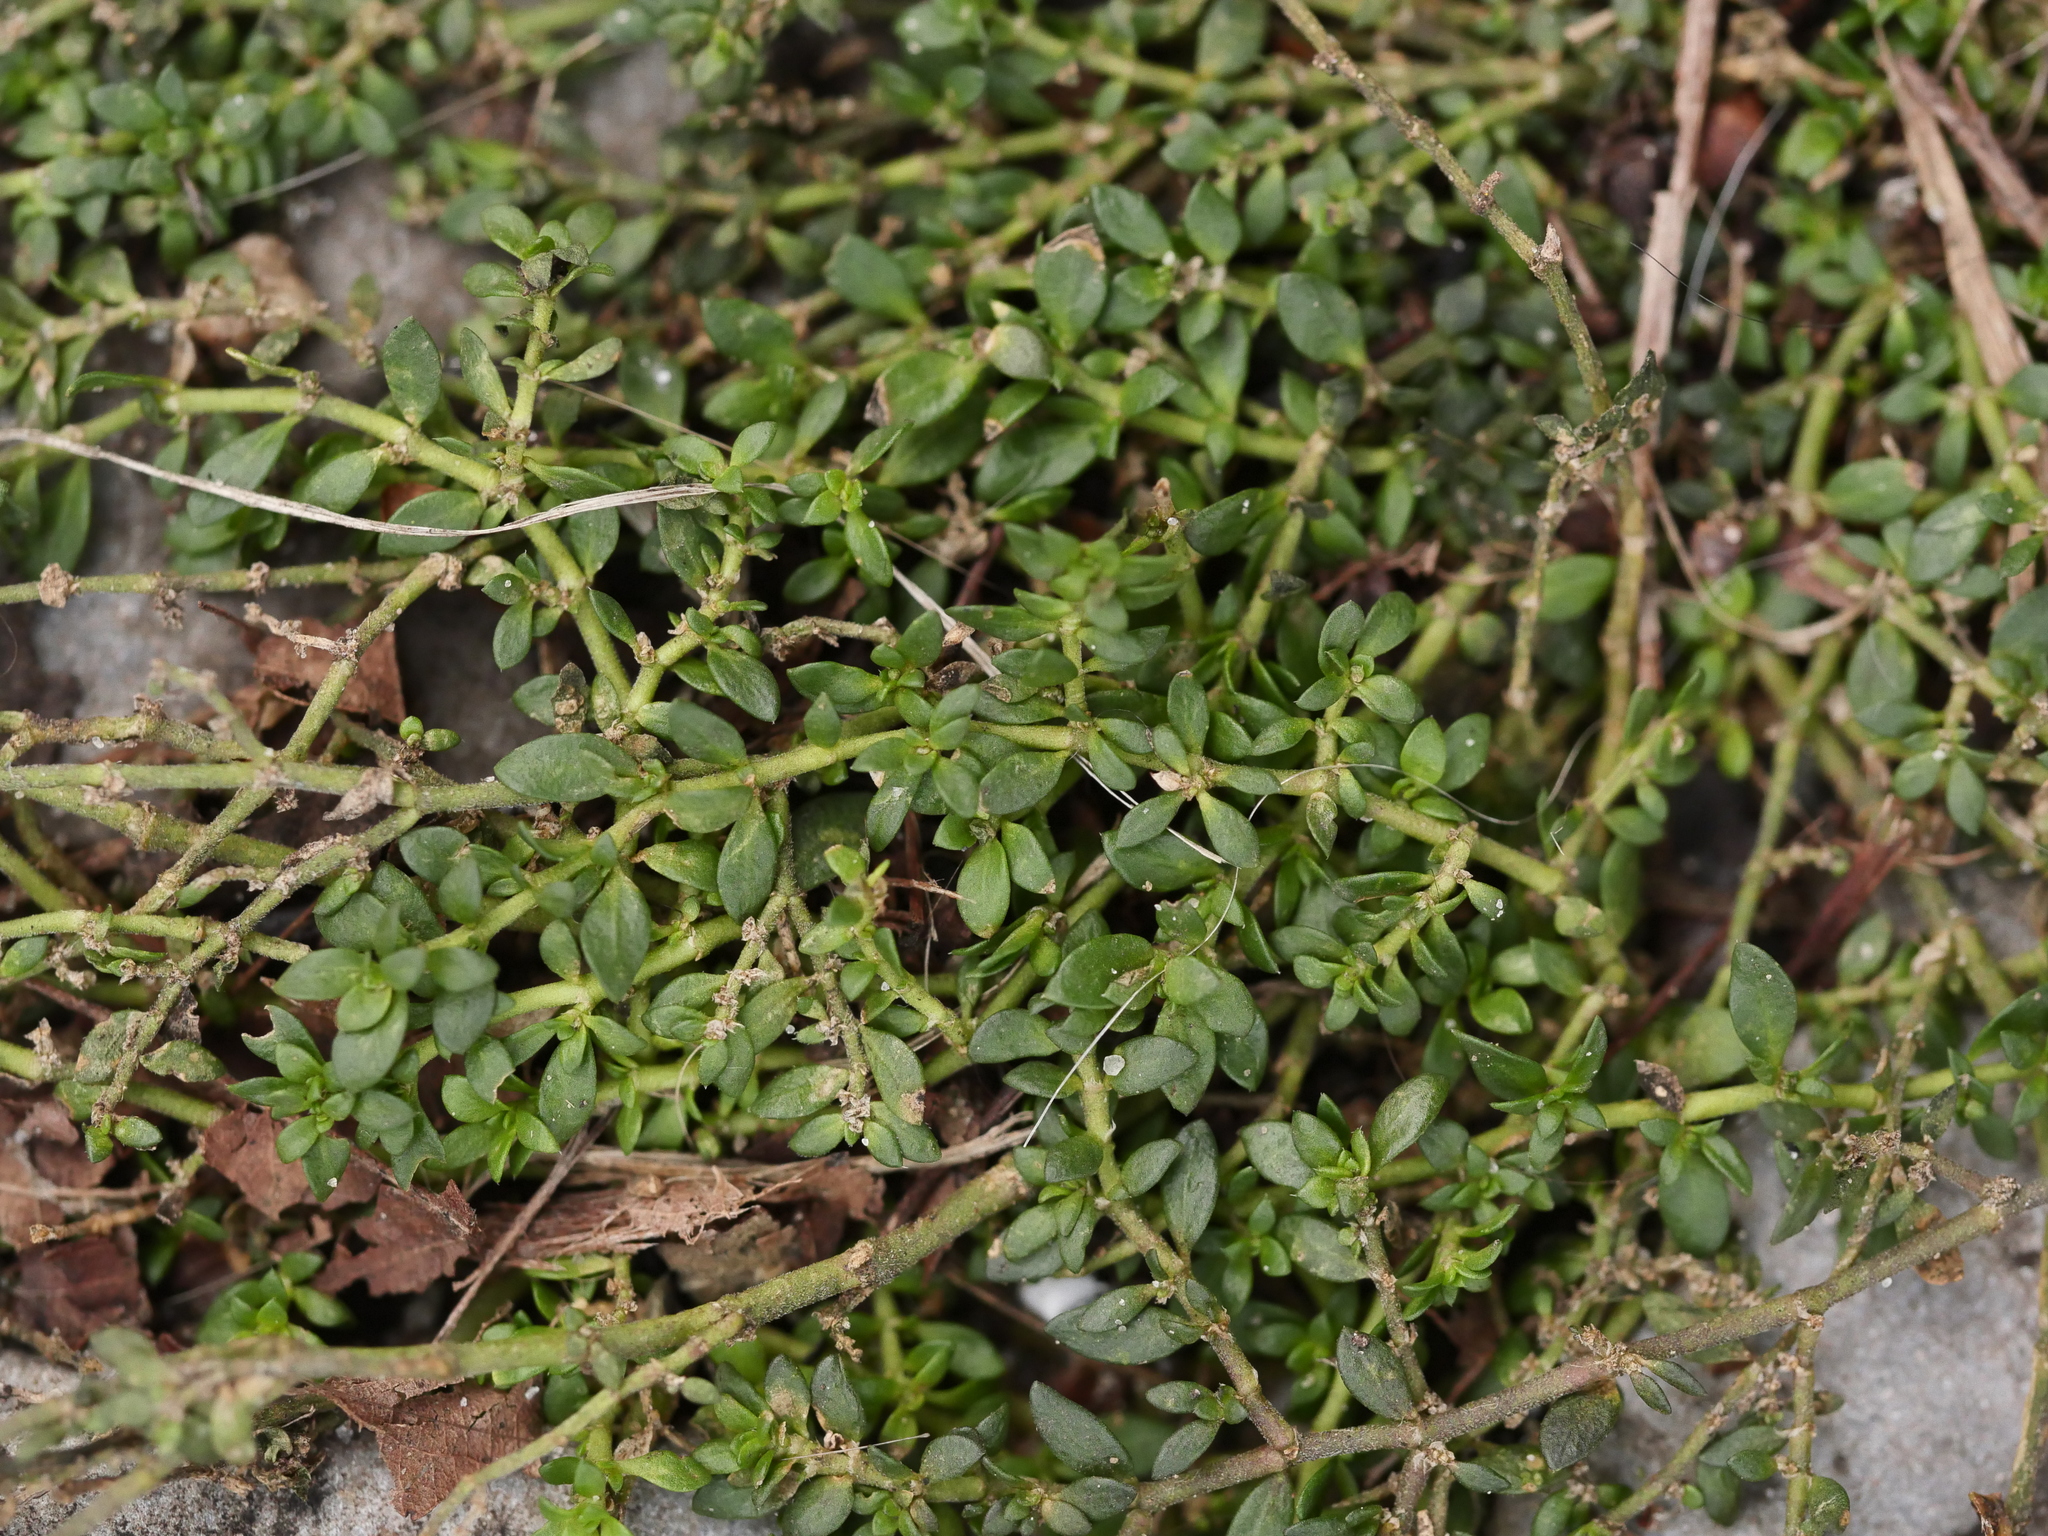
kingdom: Plantae
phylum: Tracheophyta
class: Magnoliopsida
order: Caryophyllales
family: Caryophyllaceae
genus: Herniaria
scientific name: Herniaria glabra
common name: Smooth rupturewort
